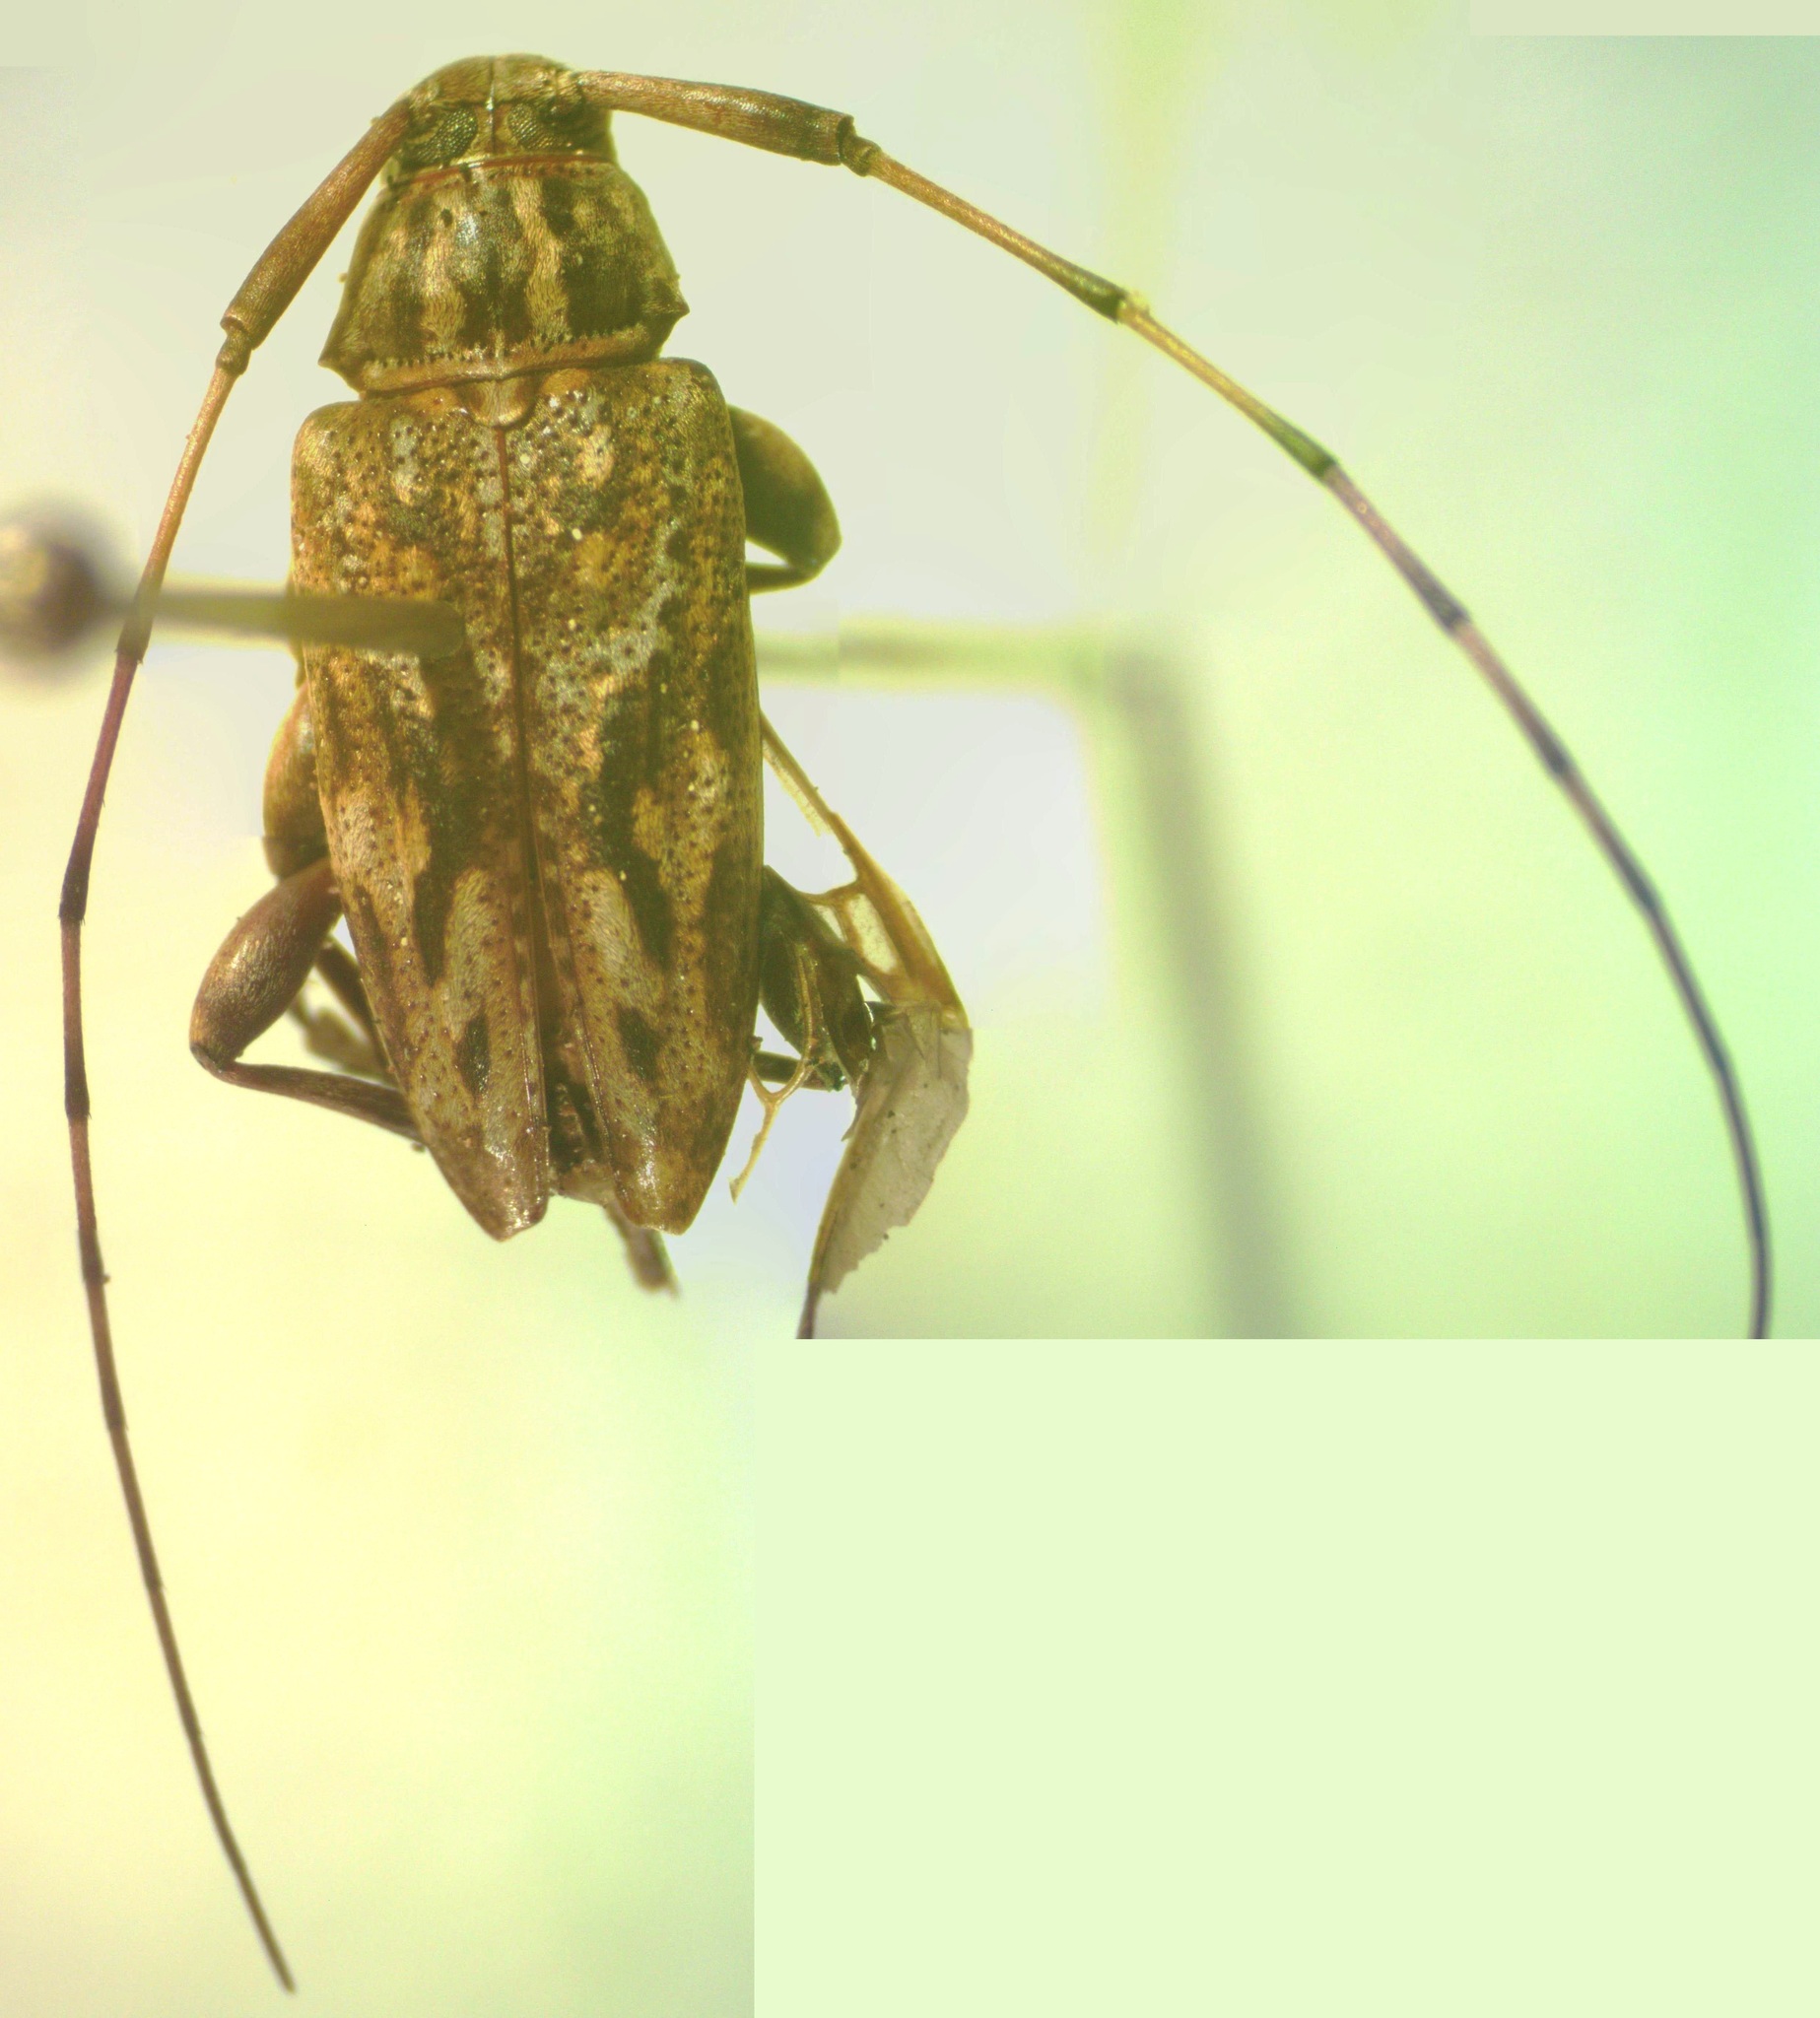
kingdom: Animalia
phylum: Arthropoda
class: Insecta
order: Coleoptera
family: Cerambycidae
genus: Atrypanius
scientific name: Atrypanius haldemani
